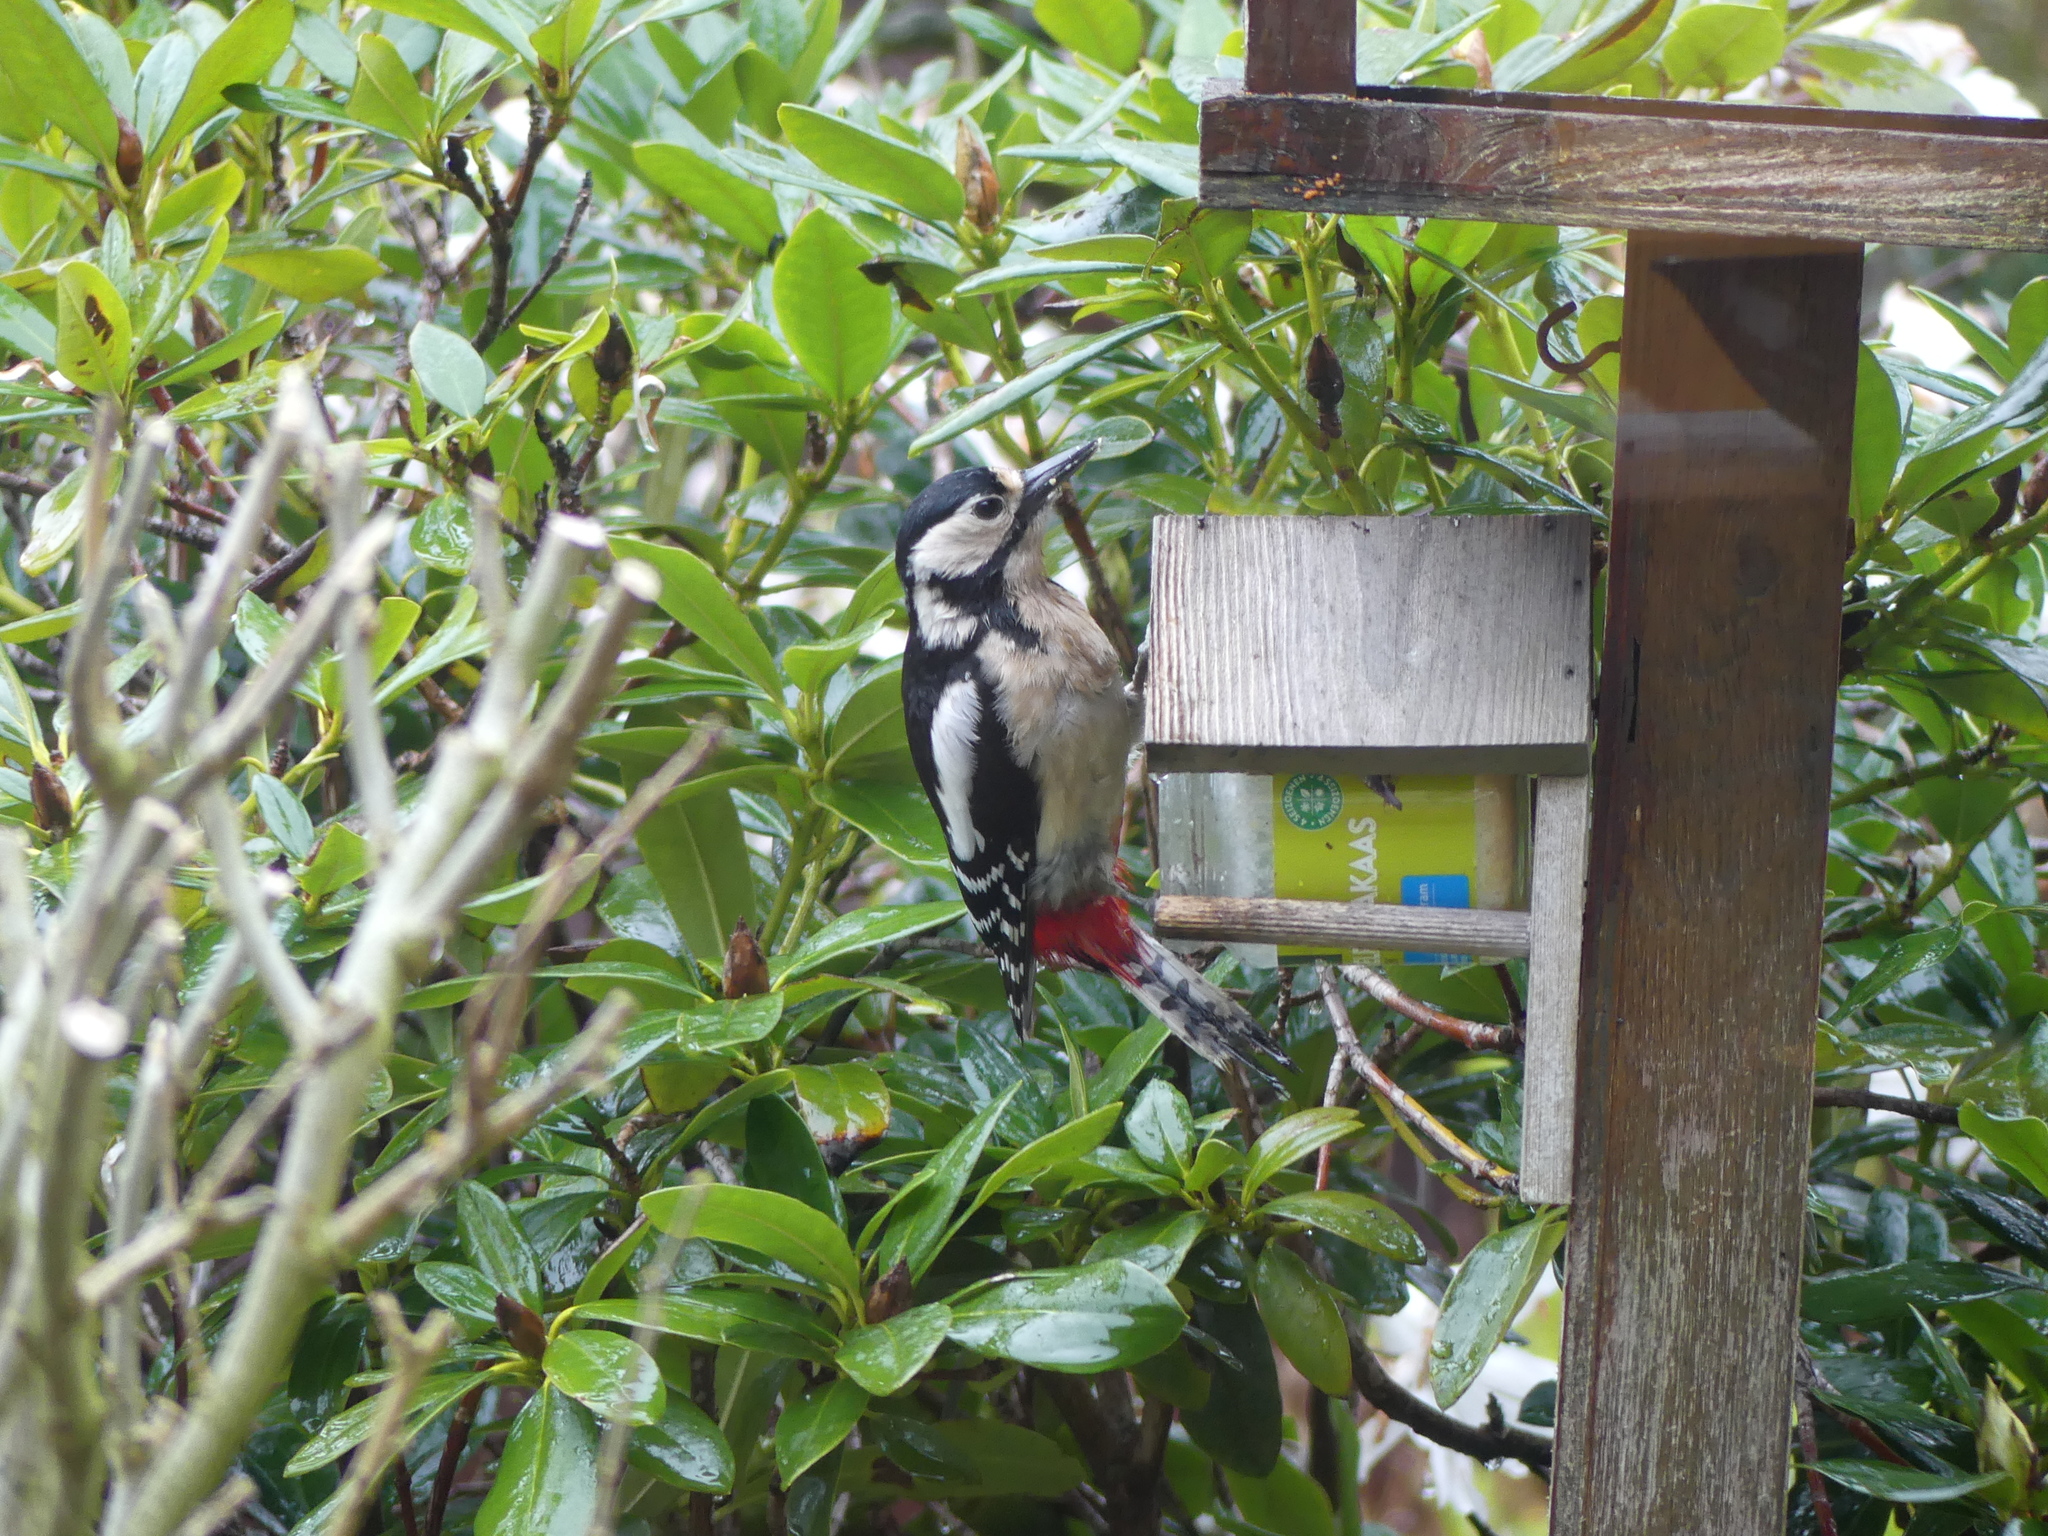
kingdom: Animalia
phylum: Chordata
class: Aves
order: Piciformes
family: Picidae
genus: Dendrocopos
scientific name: Dendrocopos major
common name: Great spotted woodpecker
